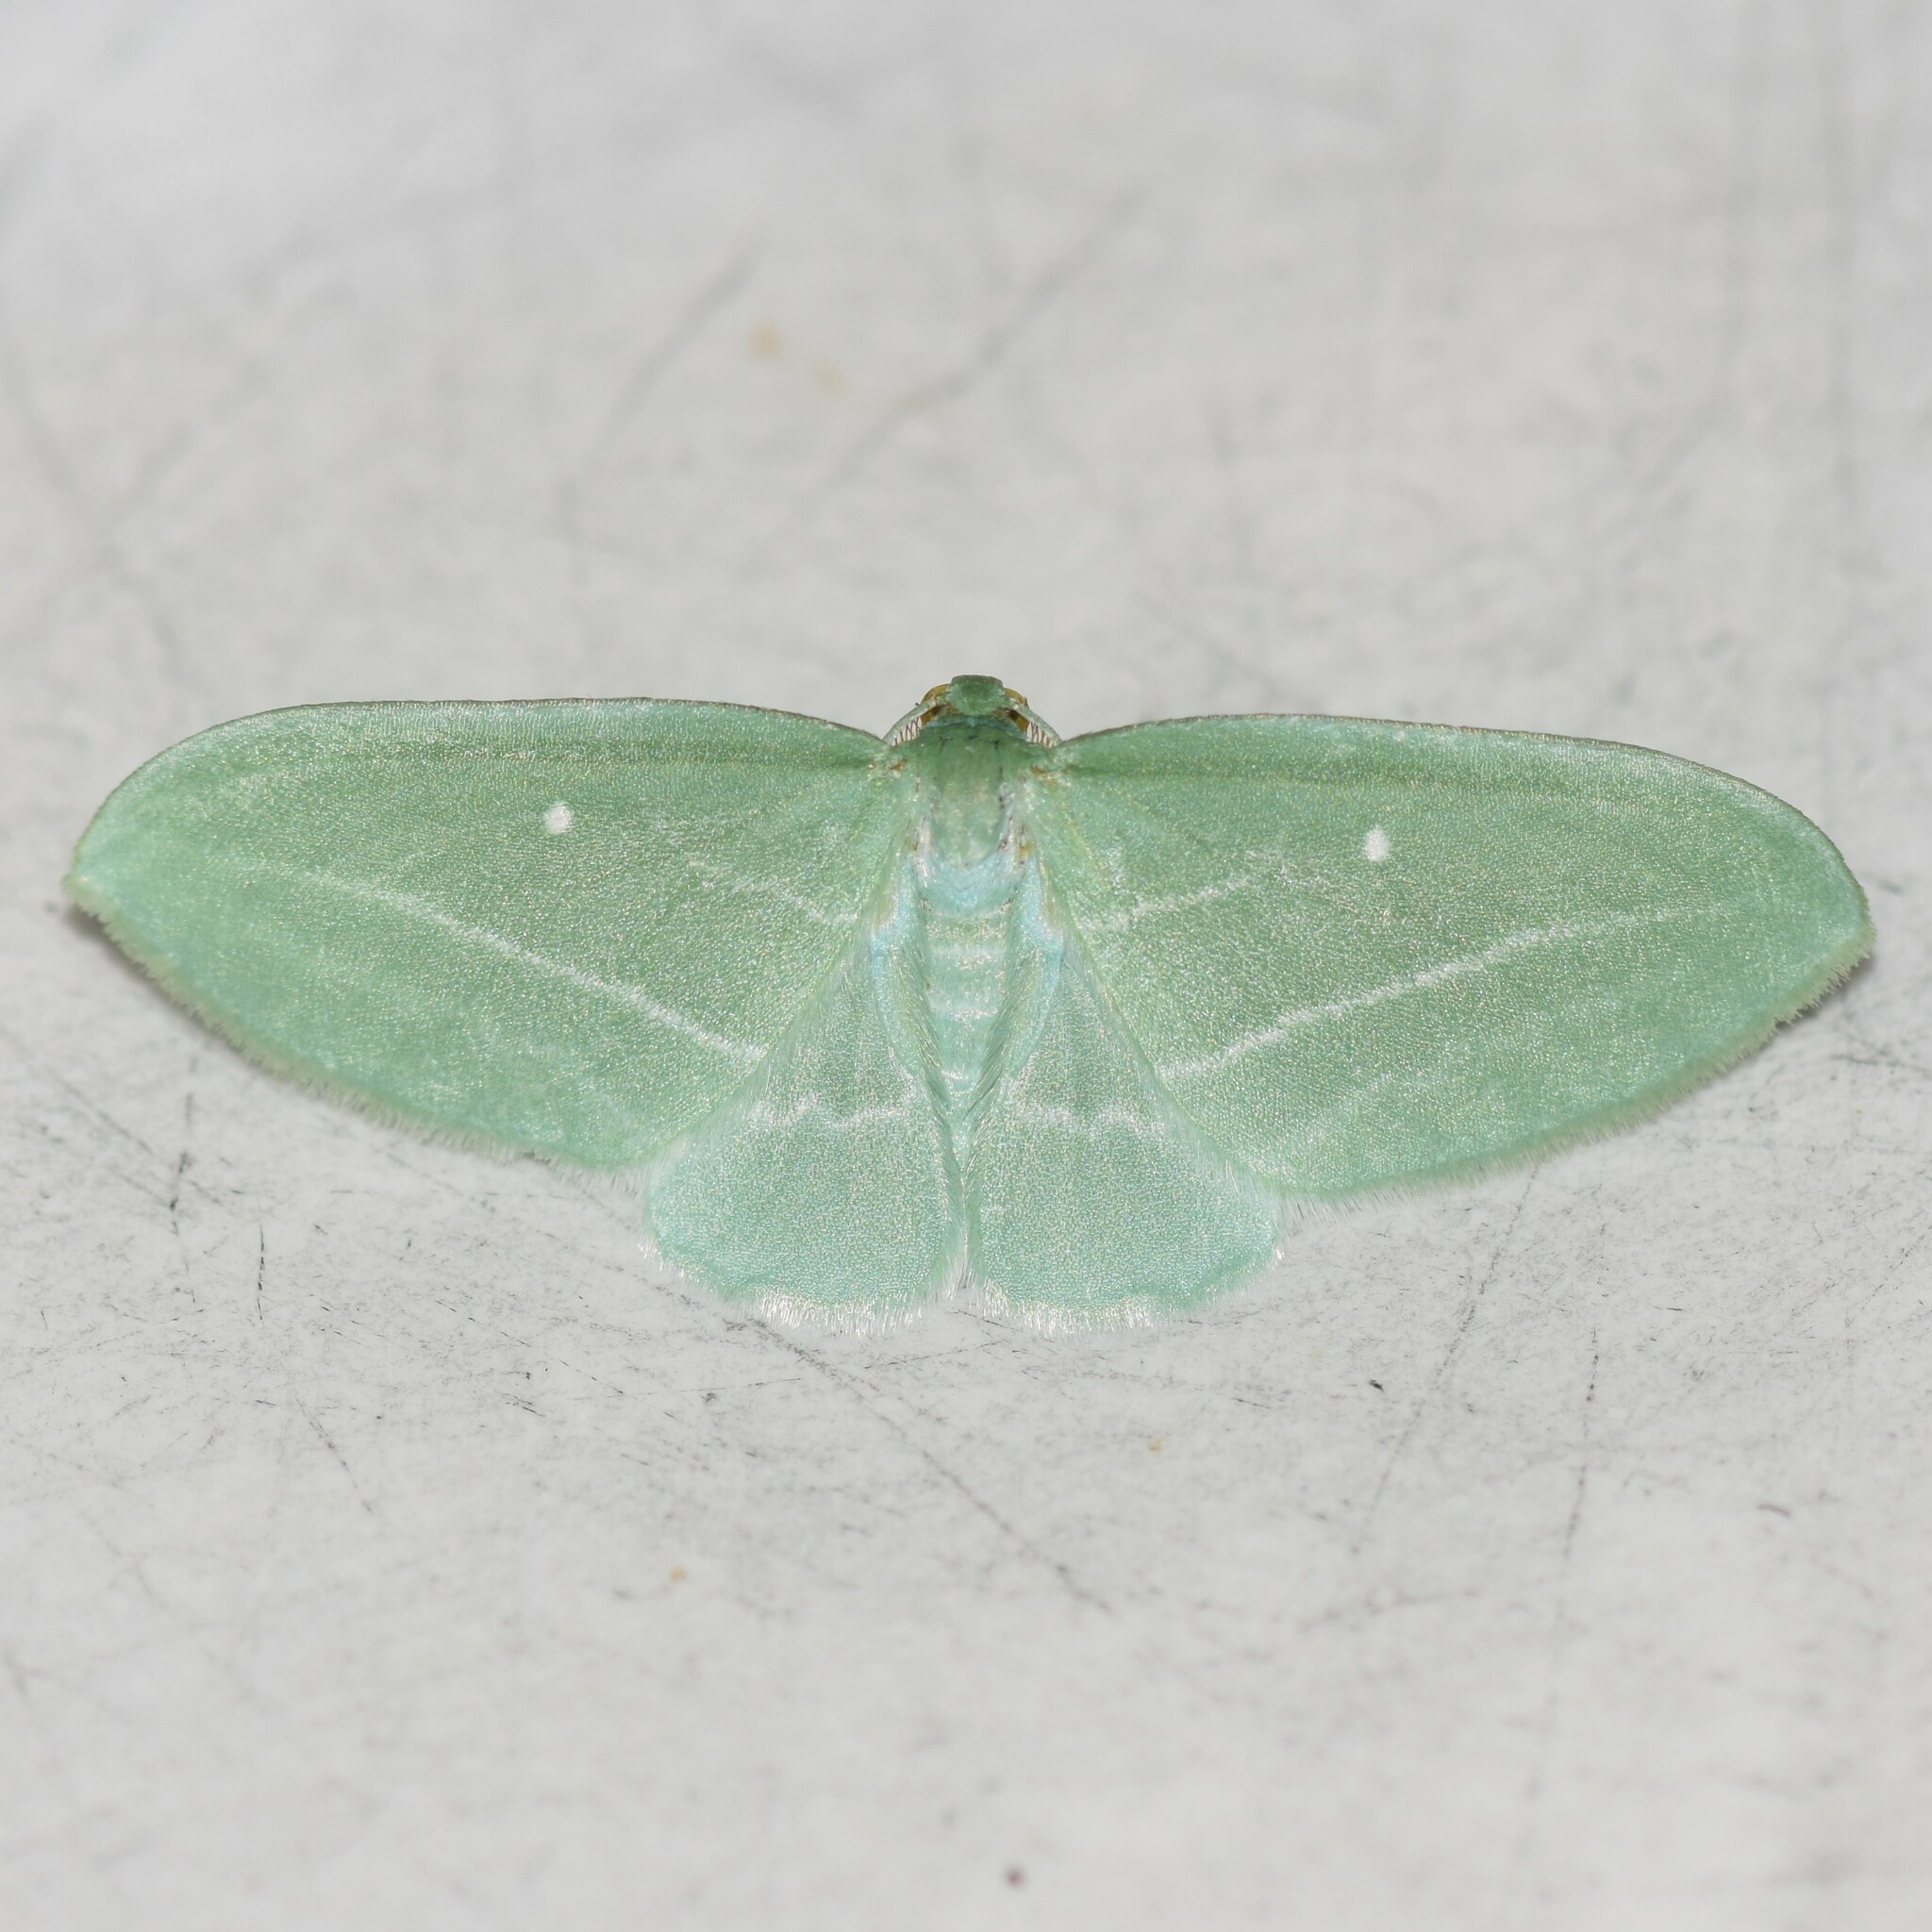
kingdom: Animalia
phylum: Arthropoda
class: Insecta
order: Lepidoptera
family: Geometridae
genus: Dyspteris
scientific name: Dyspteris abortivaria
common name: Bad-wing
